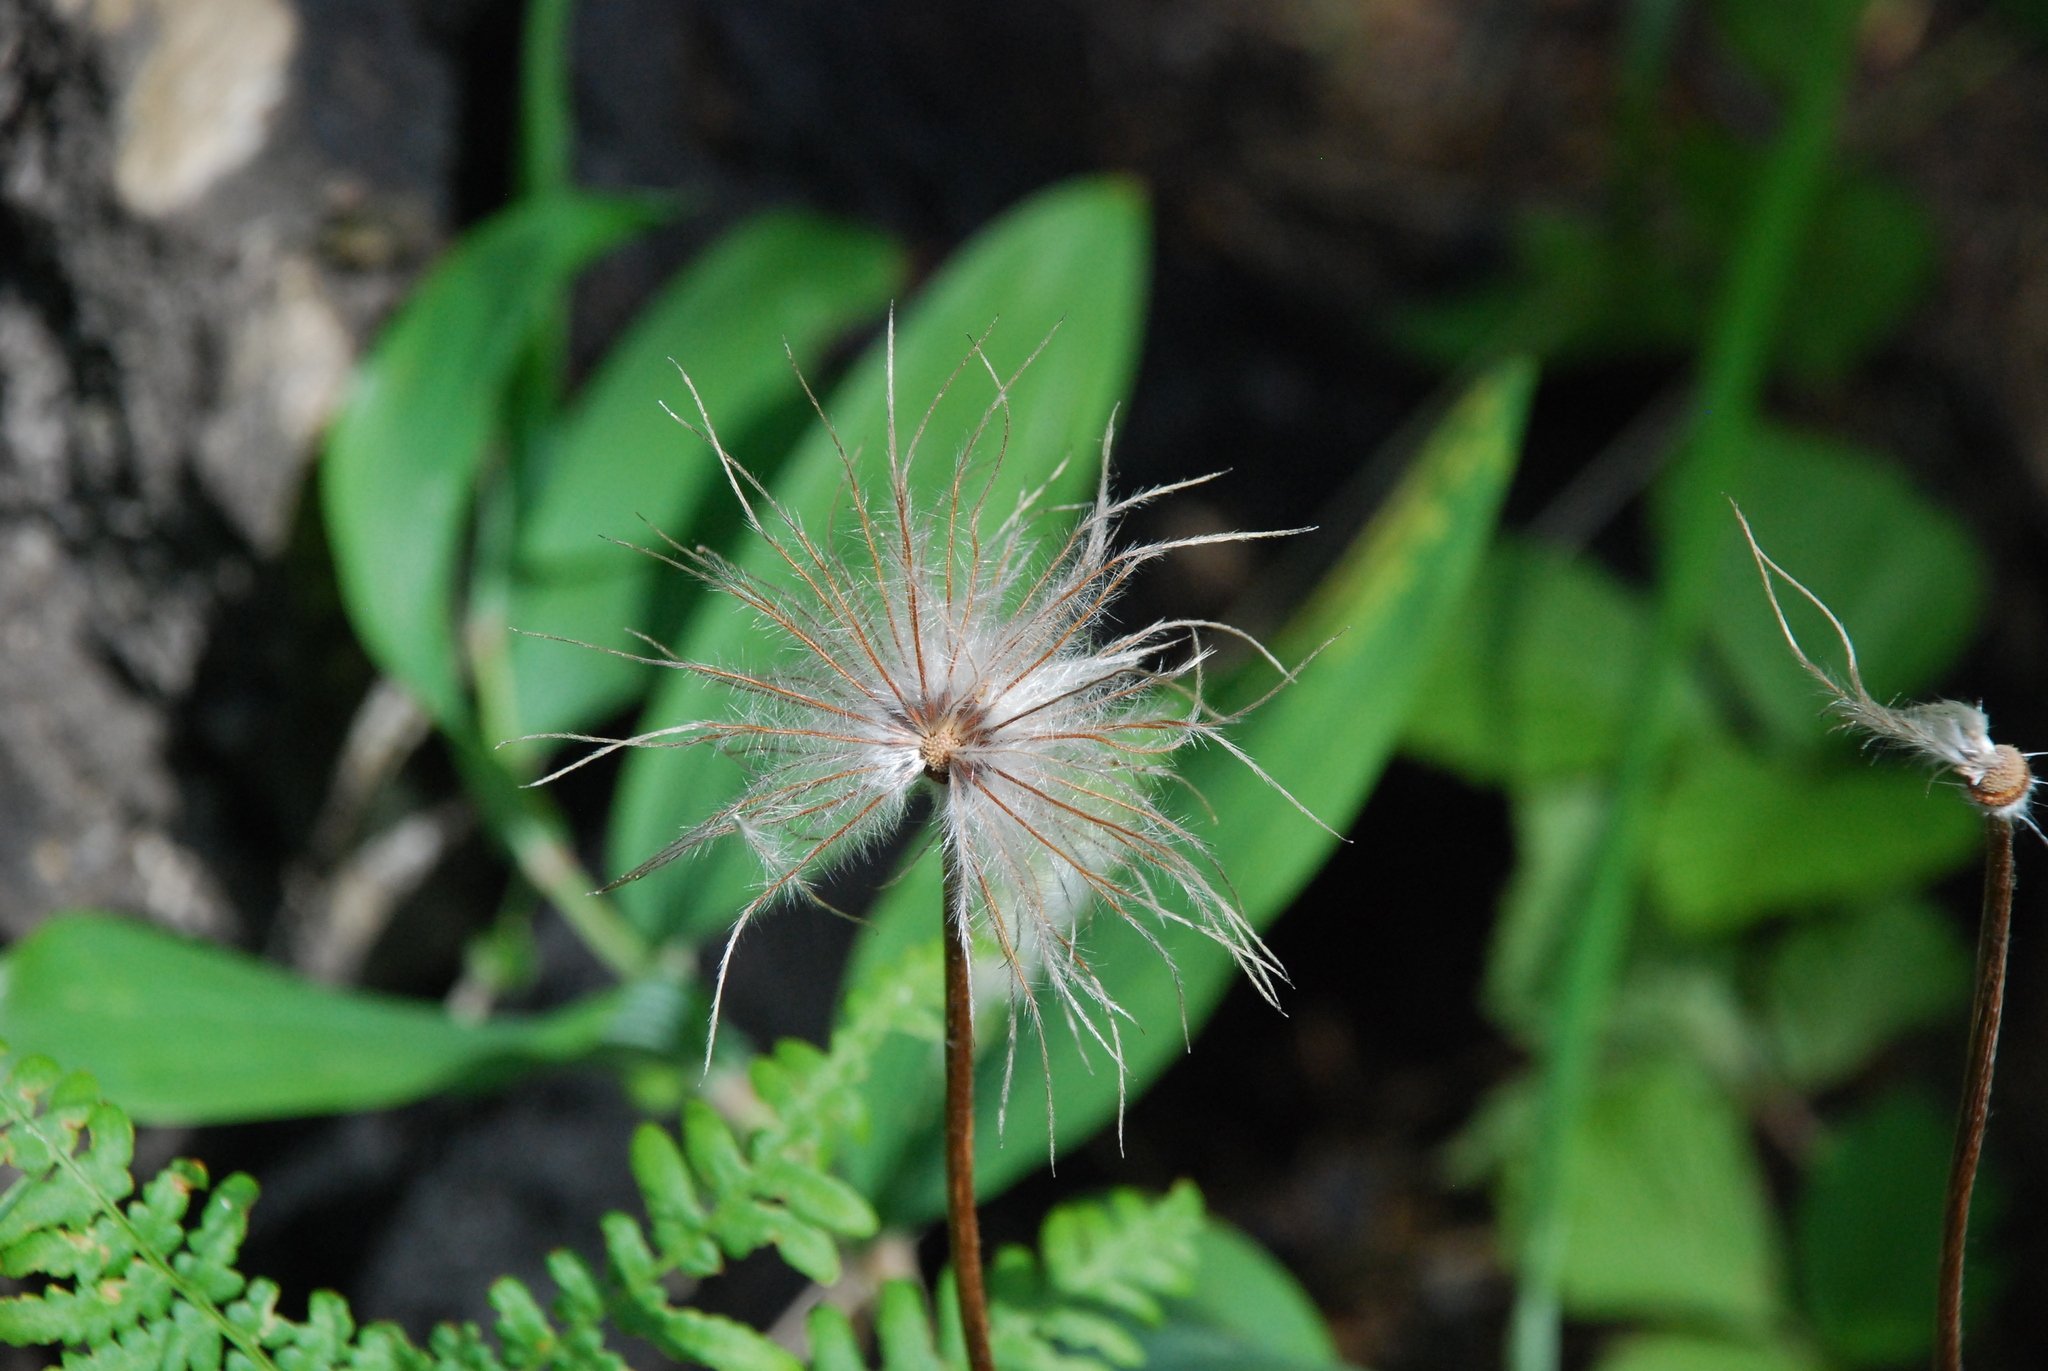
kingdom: Plantae
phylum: Tracheophyta
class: Magnoliopsida
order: Ranunculales
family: Ranunculaceae
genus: Pulsatilla
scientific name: Pulsatilla patens
